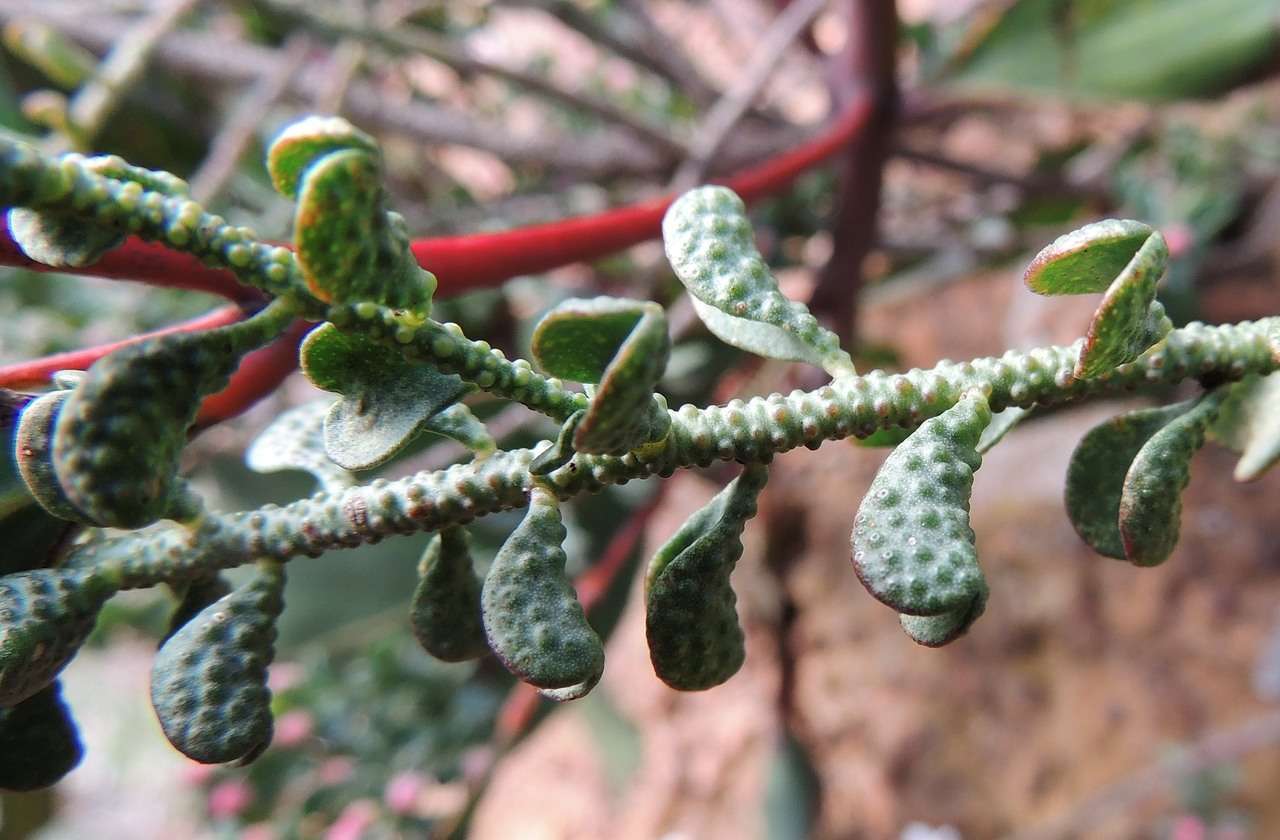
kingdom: Plantae
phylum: Tracheophyta
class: Magnoliopsida
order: Sapindales
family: Rutaceae
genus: Philotheca
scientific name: Philotheca verrucosa
